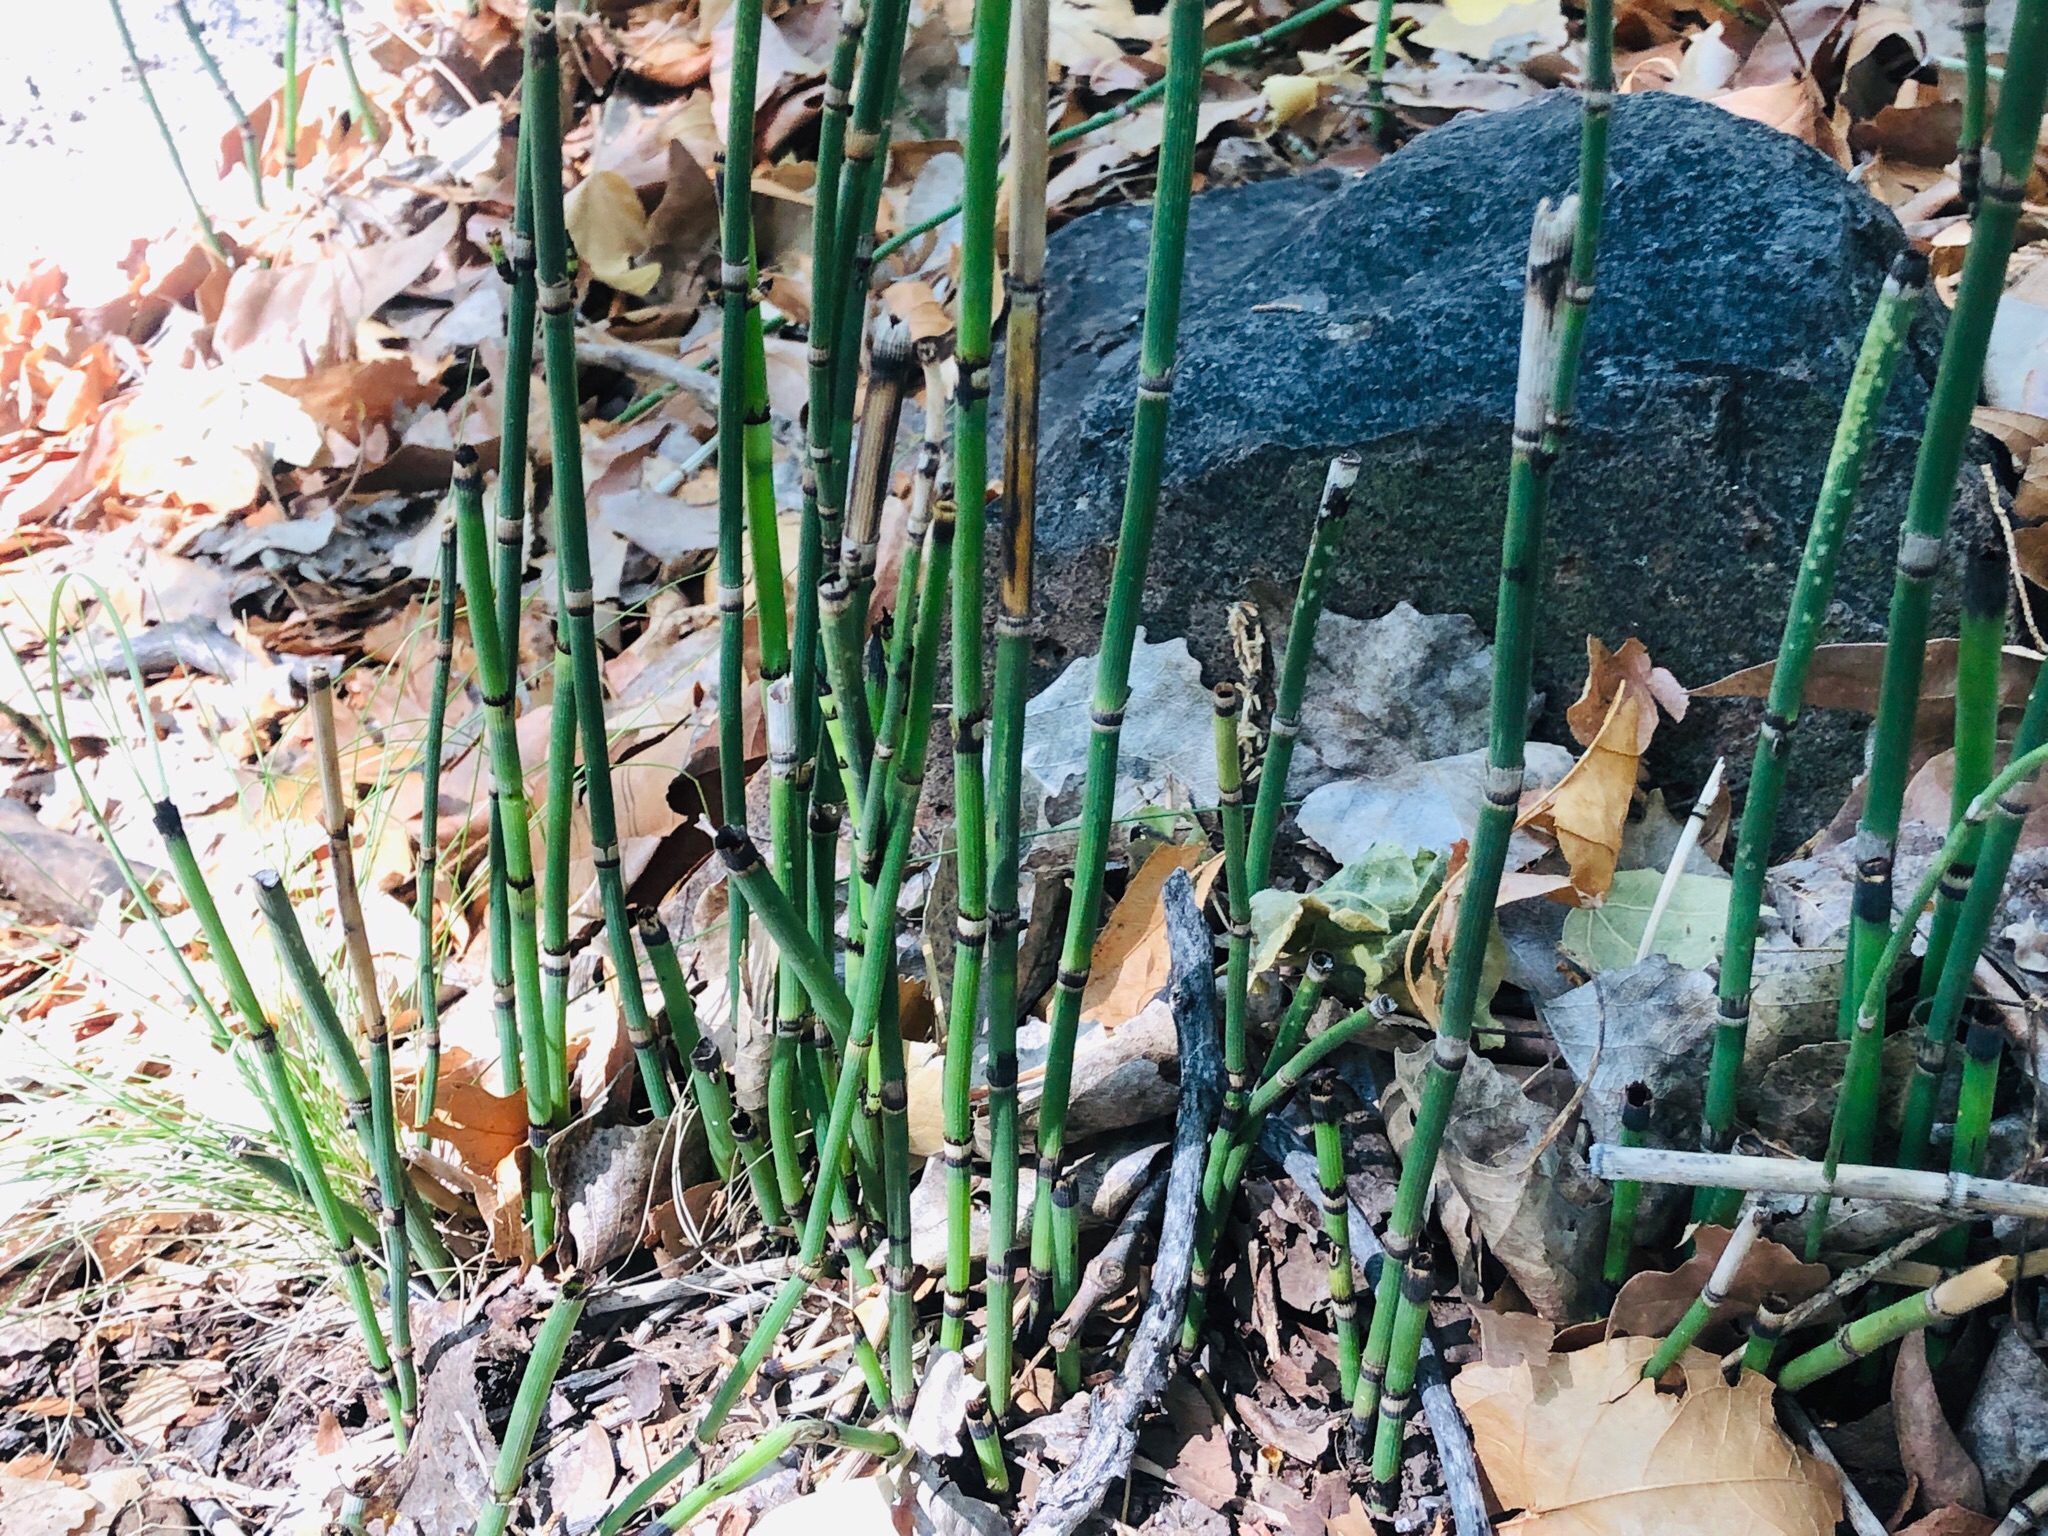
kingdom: Plantae
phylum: Tracheophyta
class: Polypodiopsida
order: Equisetales
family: Equisetaceae
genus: Equisetum
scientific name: Equisetum hyemale
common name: Rough horsetail
